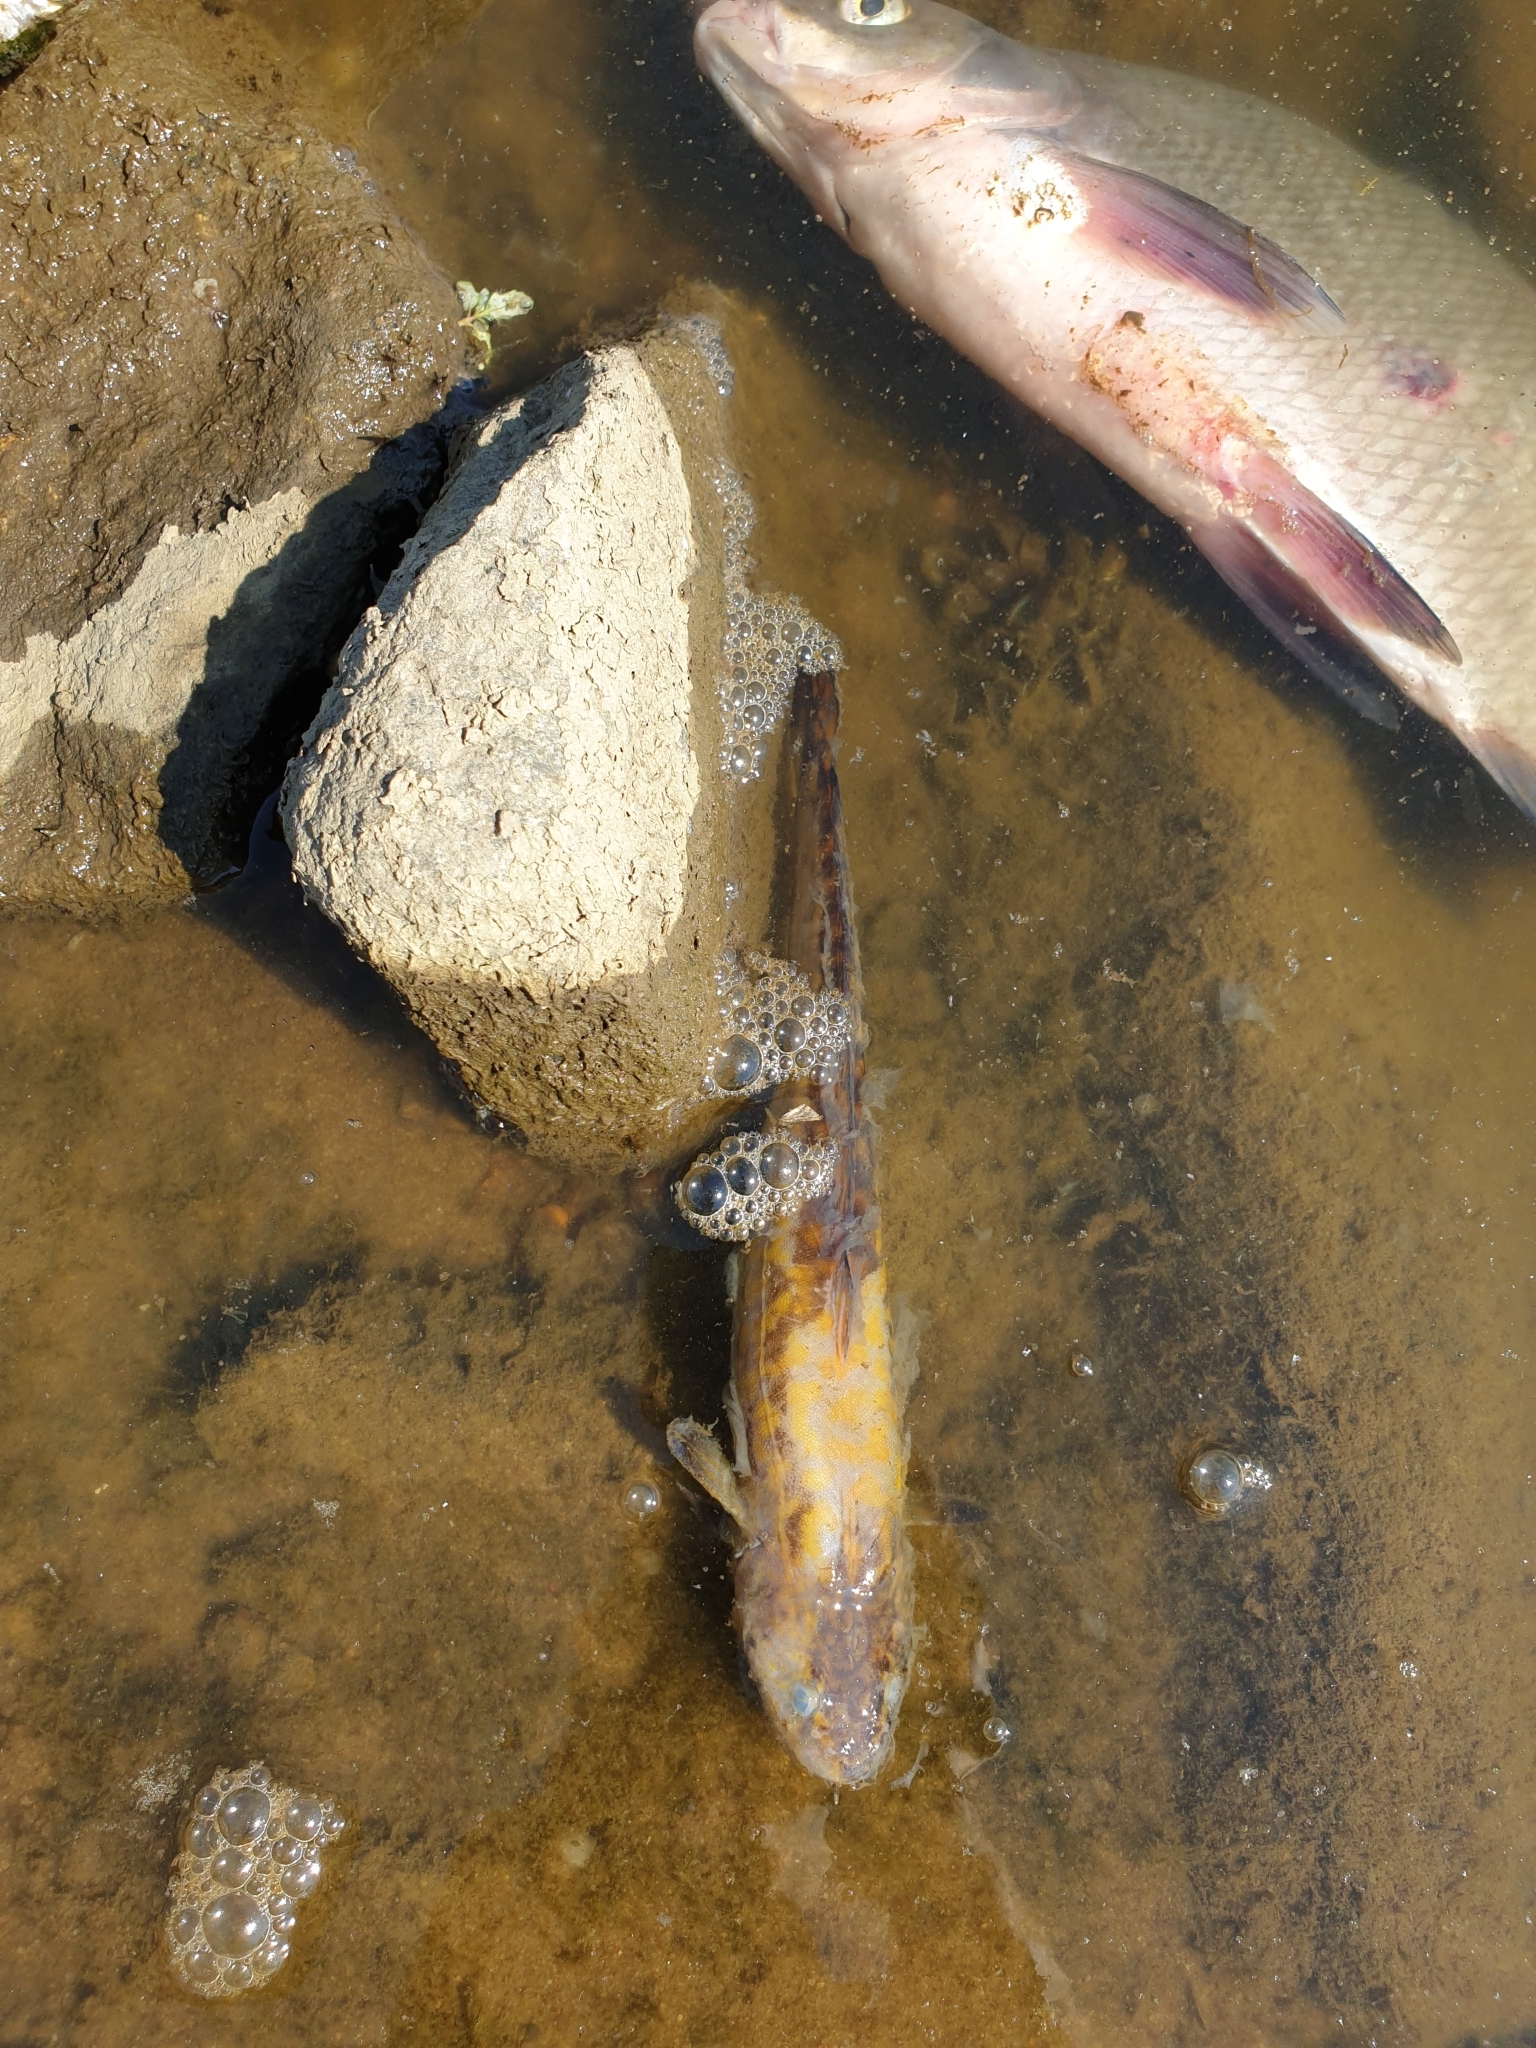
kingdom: Animalia
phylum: Chordata
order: Gadiformes
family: Lotidae
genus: Lota
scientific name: Lota lota
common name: Burbot
